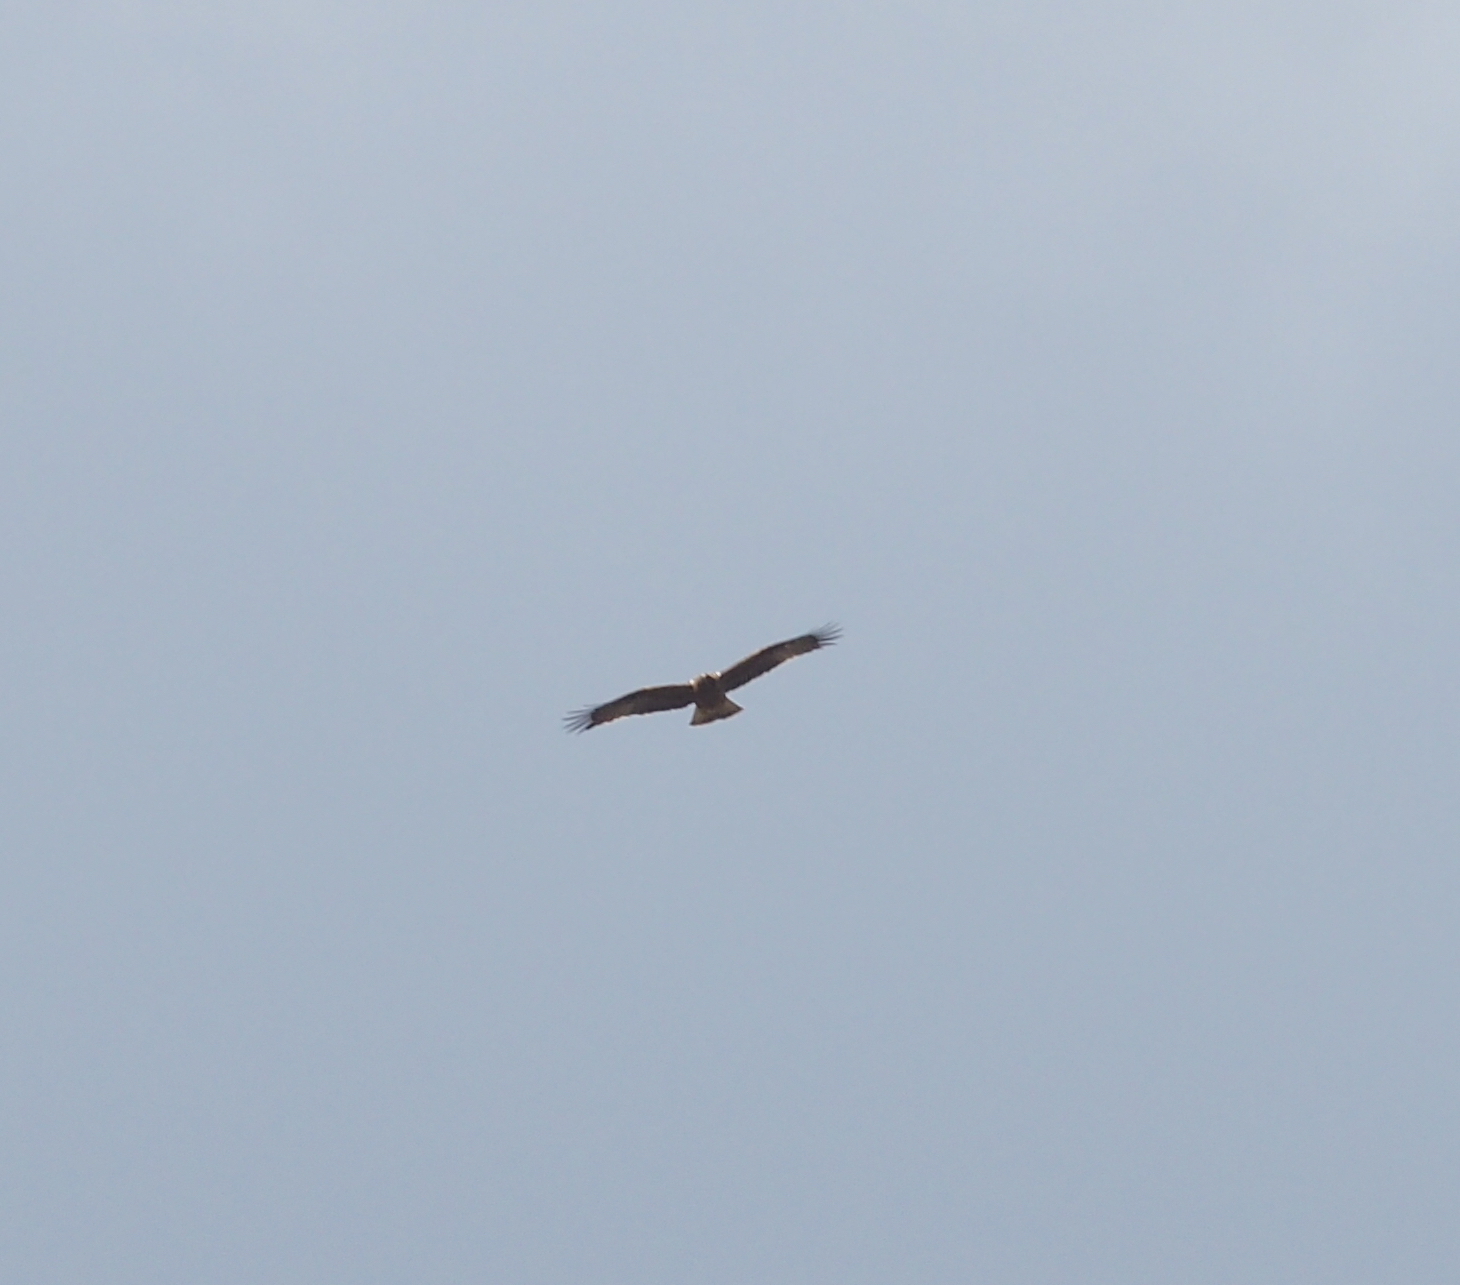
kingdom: Animalia
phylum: Chordata
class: Aves
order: Accipitriformes
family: Accipitridae
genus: Hieraaetus
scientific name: Hieraaetus pennatus
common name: Booted eagle
